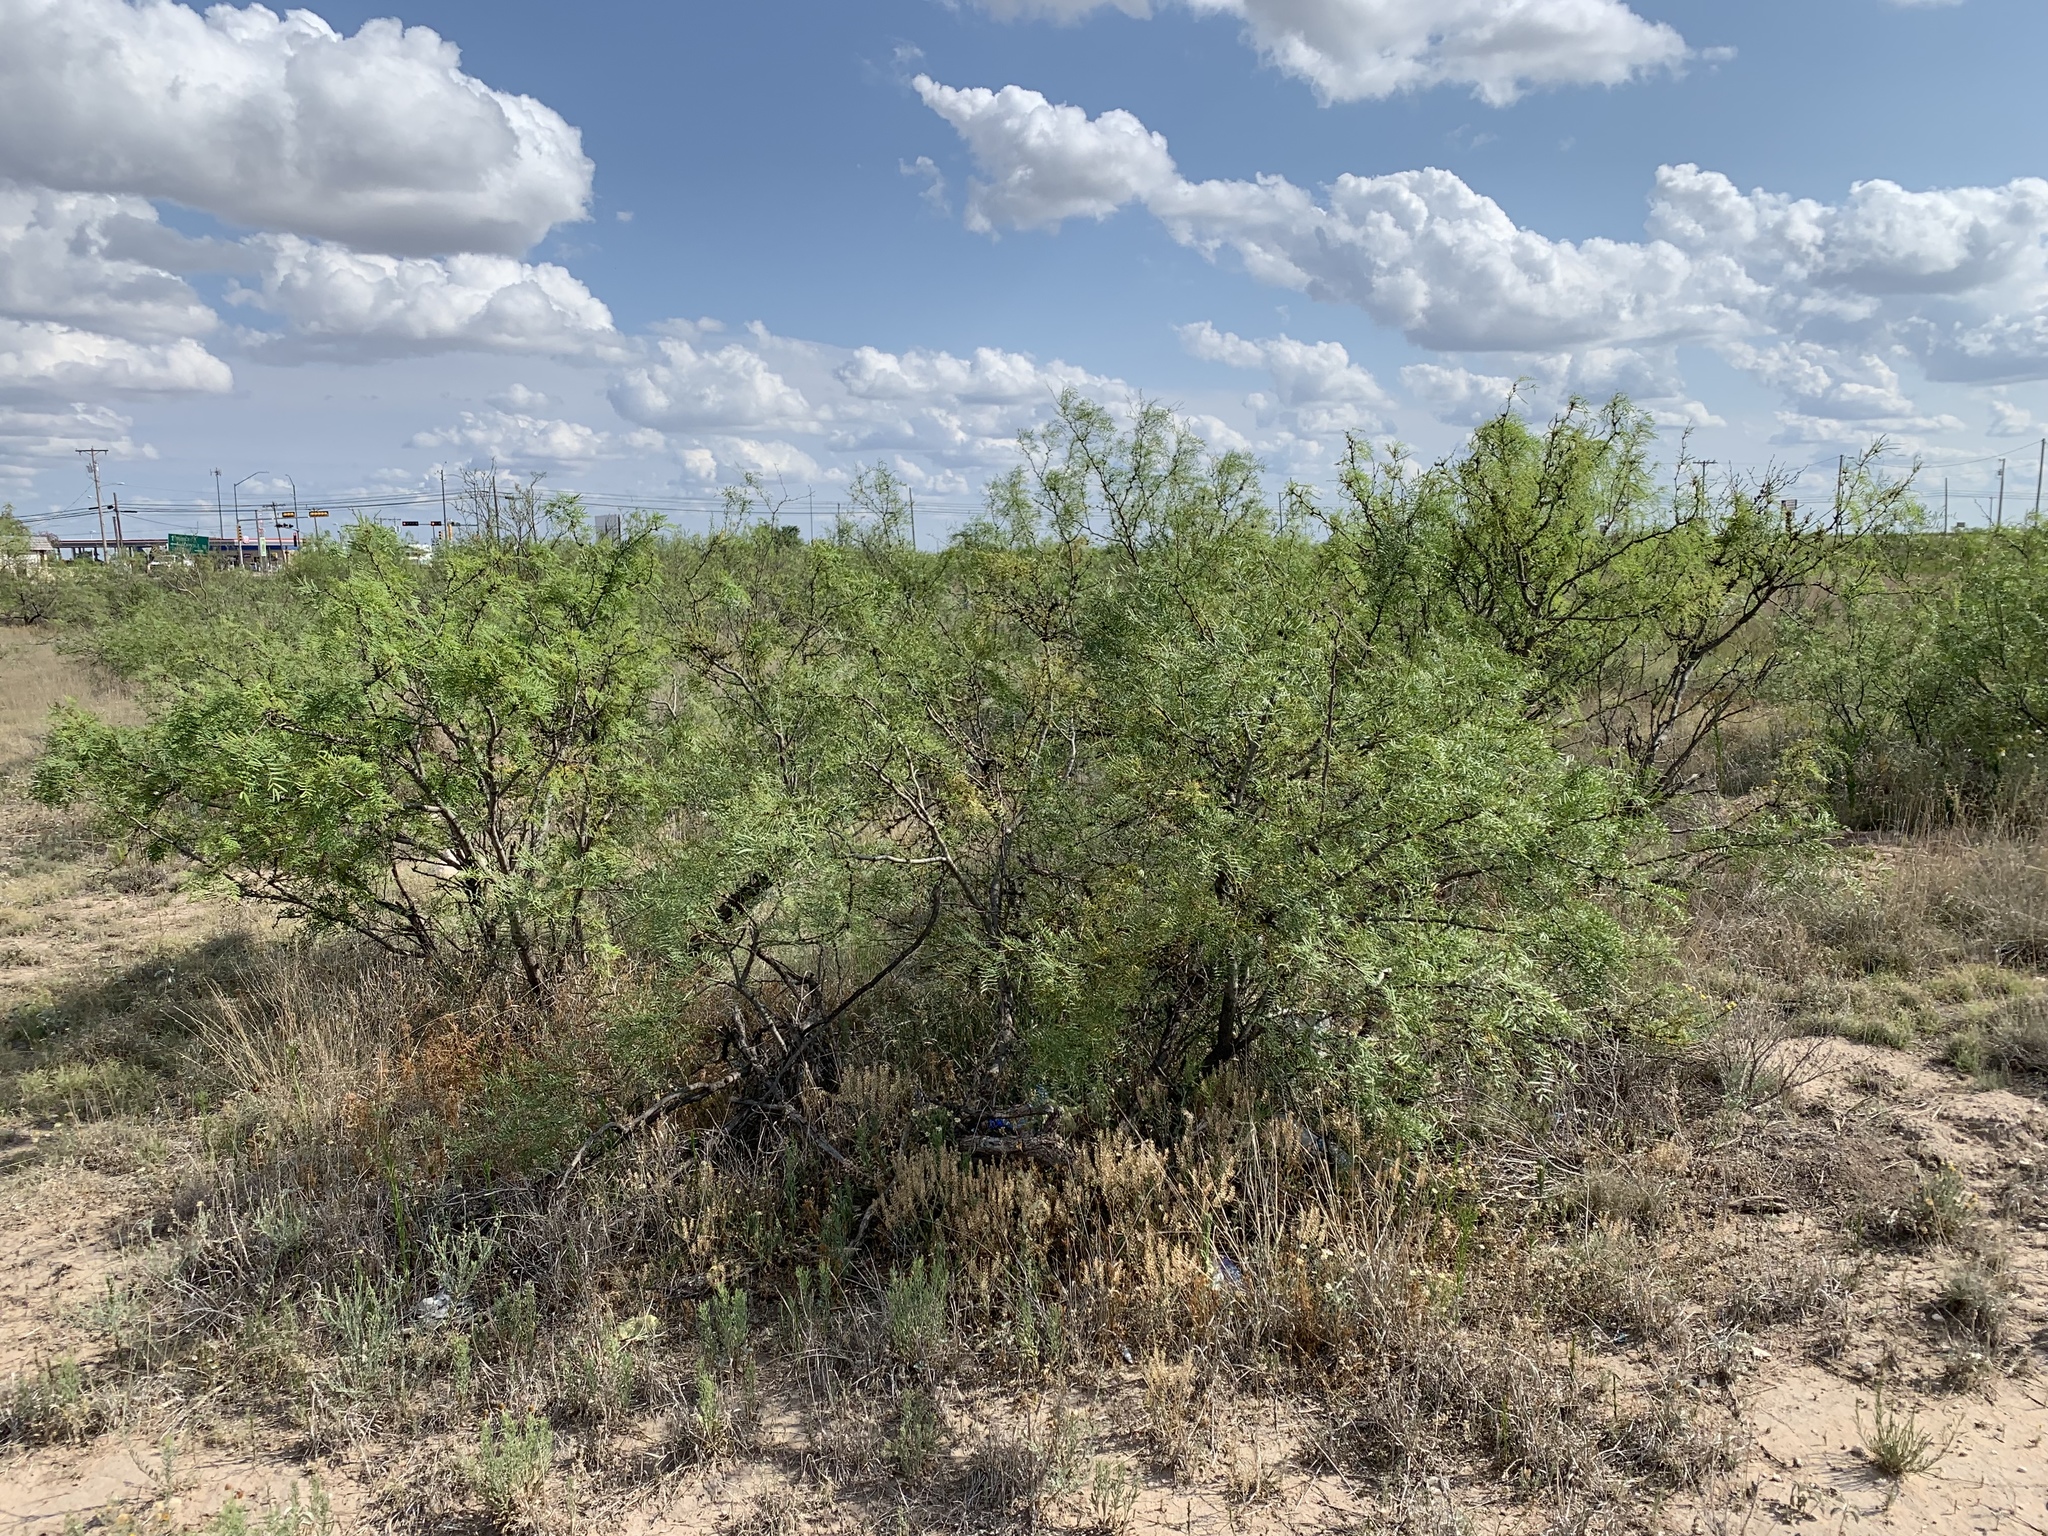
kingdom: Plantae
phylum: Tracheophyta
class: Magnoliopsida
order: Fabales
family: Fabaceae
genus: Prosopis
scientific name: Prosopis glandulosa
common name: Honey mesquite
